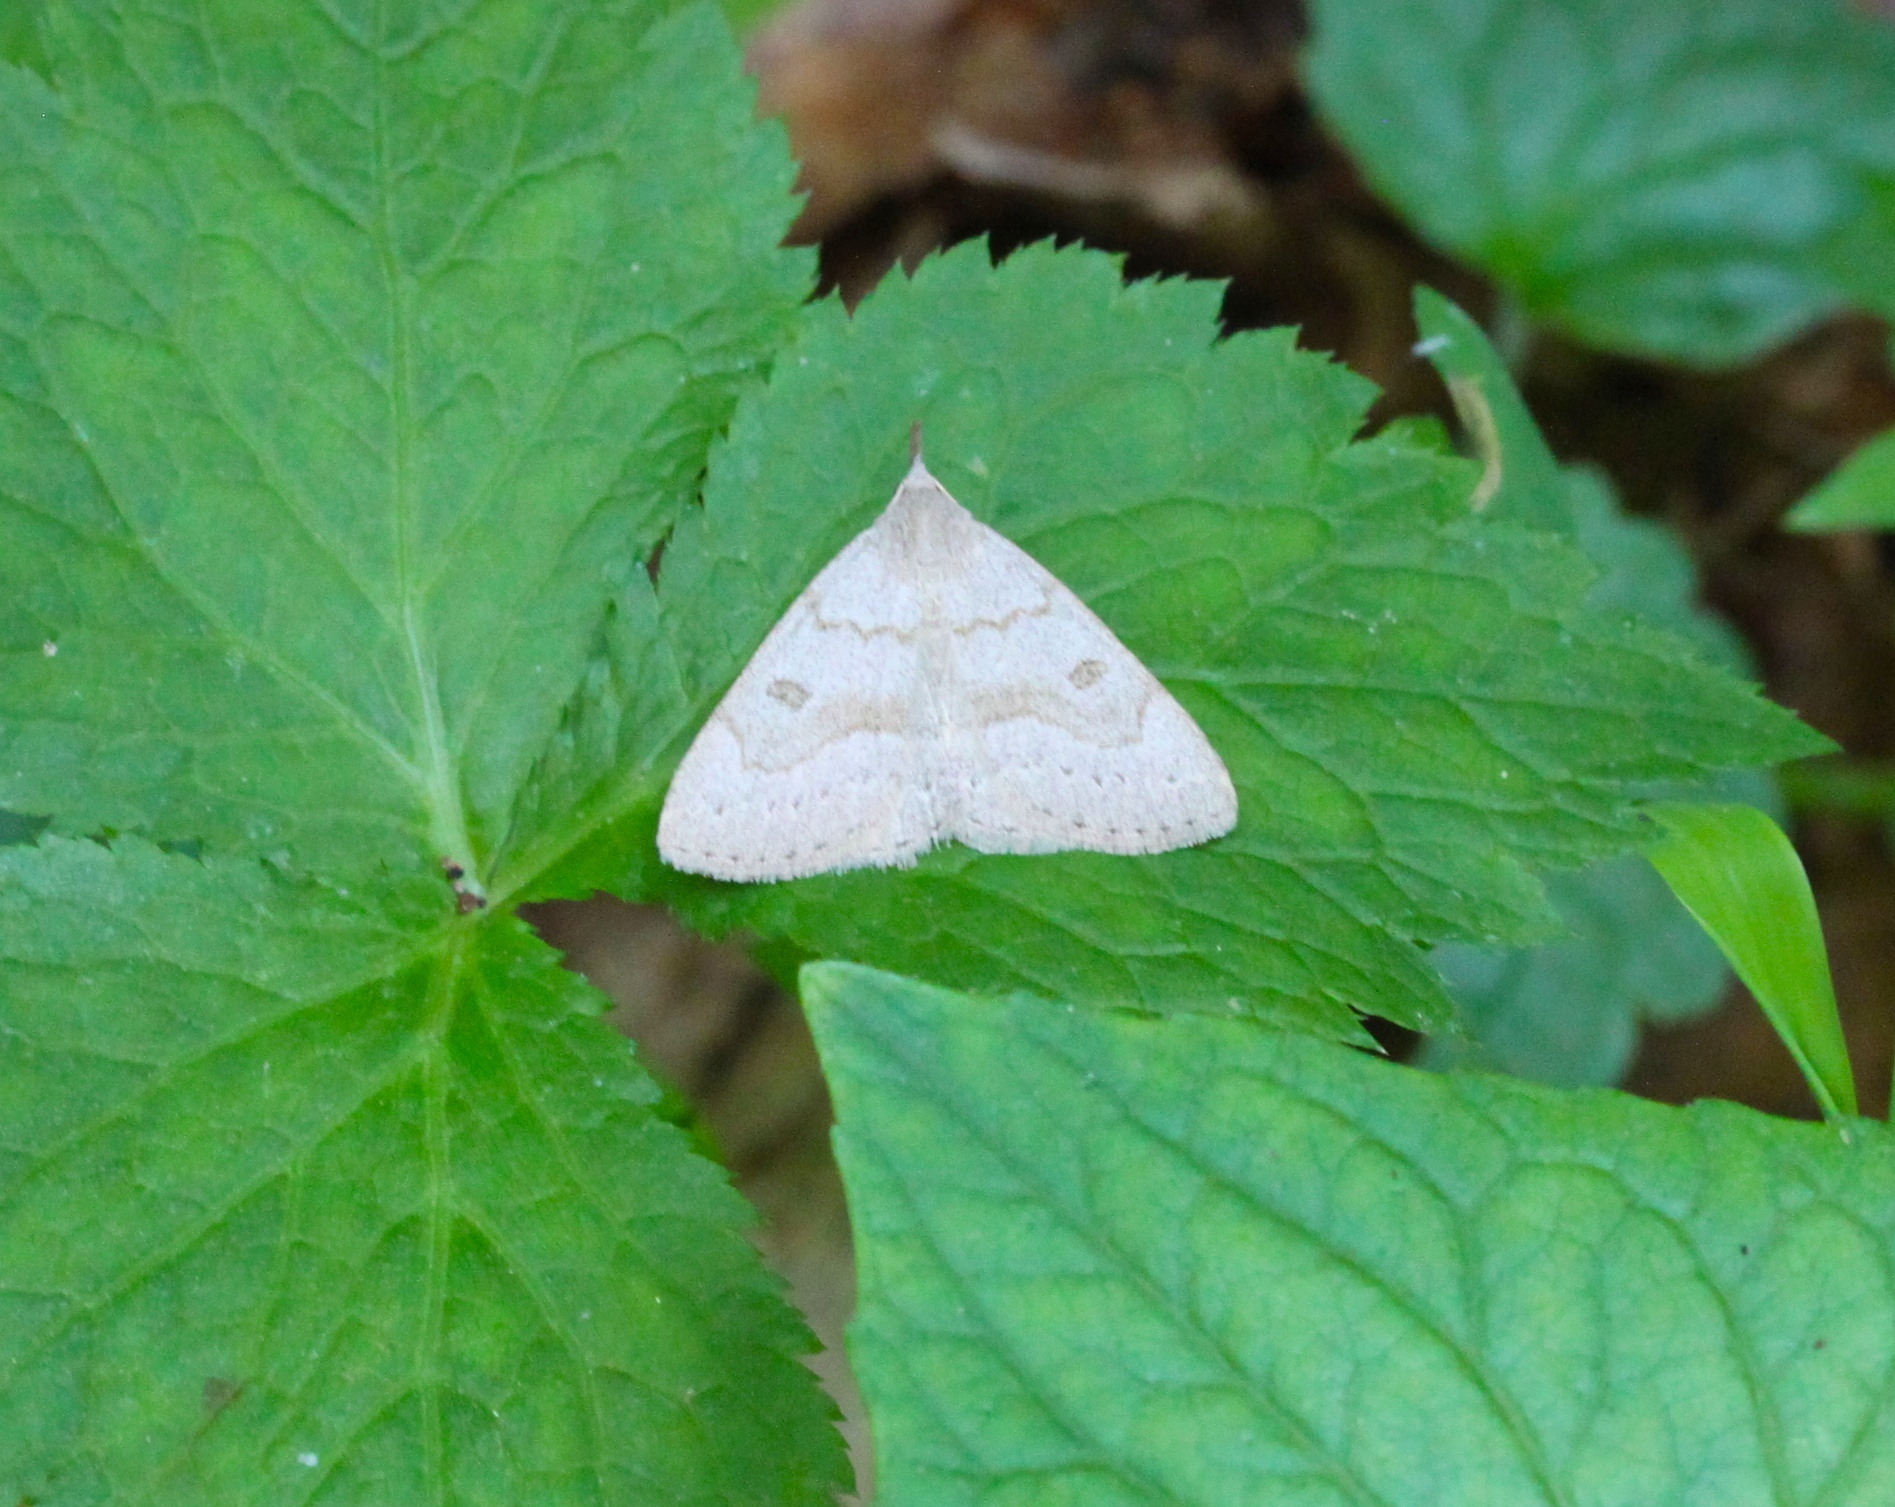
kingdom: Animalia
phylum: Arthropoda
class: Insecta
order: Lepidoptera
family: Erebidae
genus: Macrochilo
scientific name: Macrochilo morbidalis
